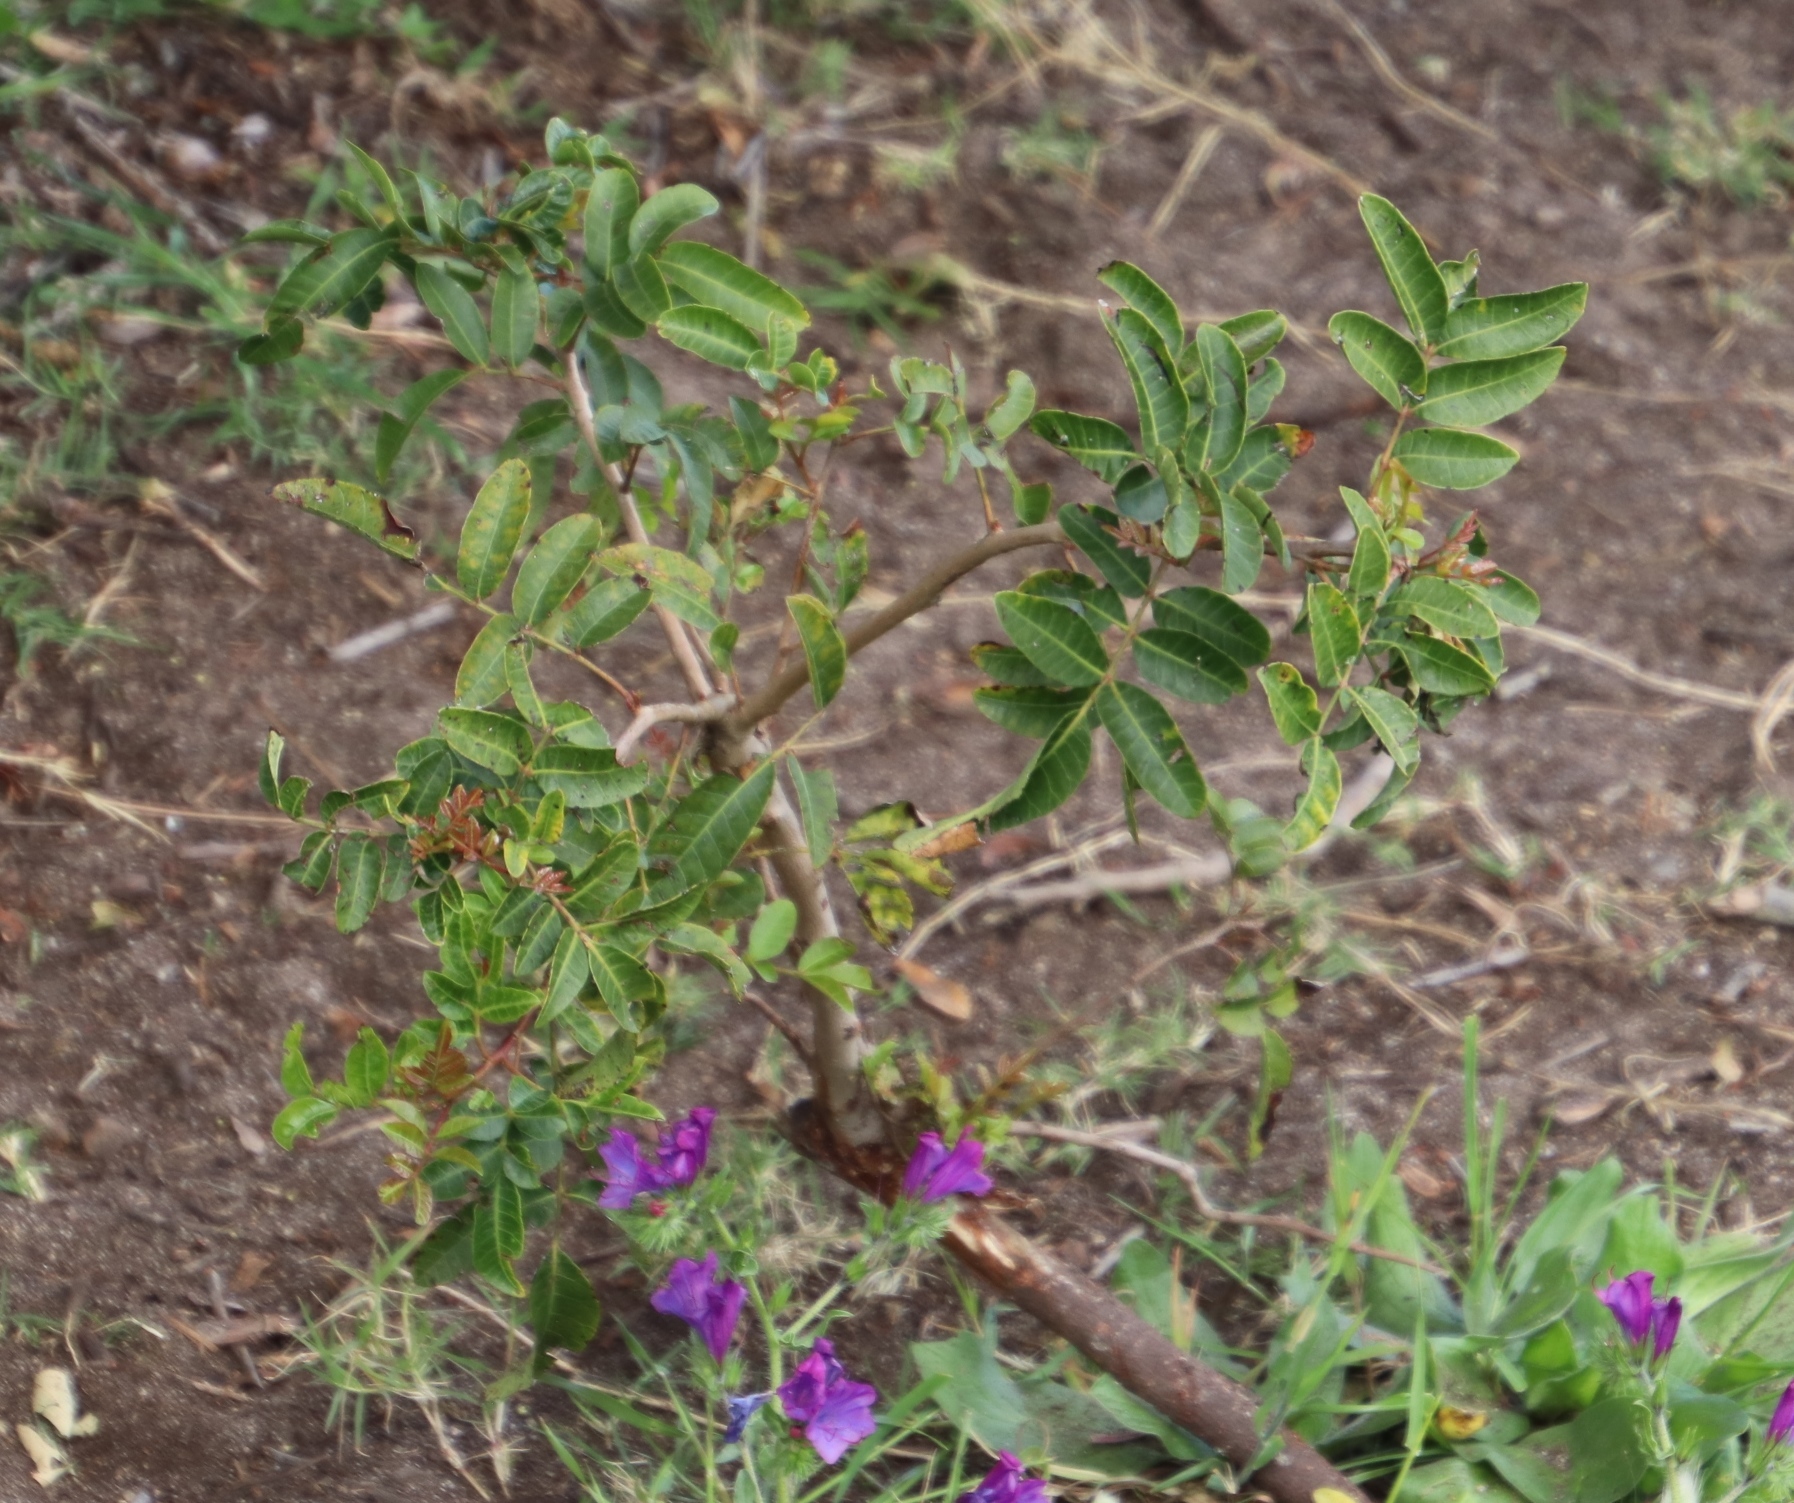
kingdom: Plantae
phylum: Tracheophyta
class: Magnoliopsida
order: Sapindales
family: Anacardiaceae
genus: Schinus
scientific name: Schinus terebinthifolia
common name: Brazilian peppertree
